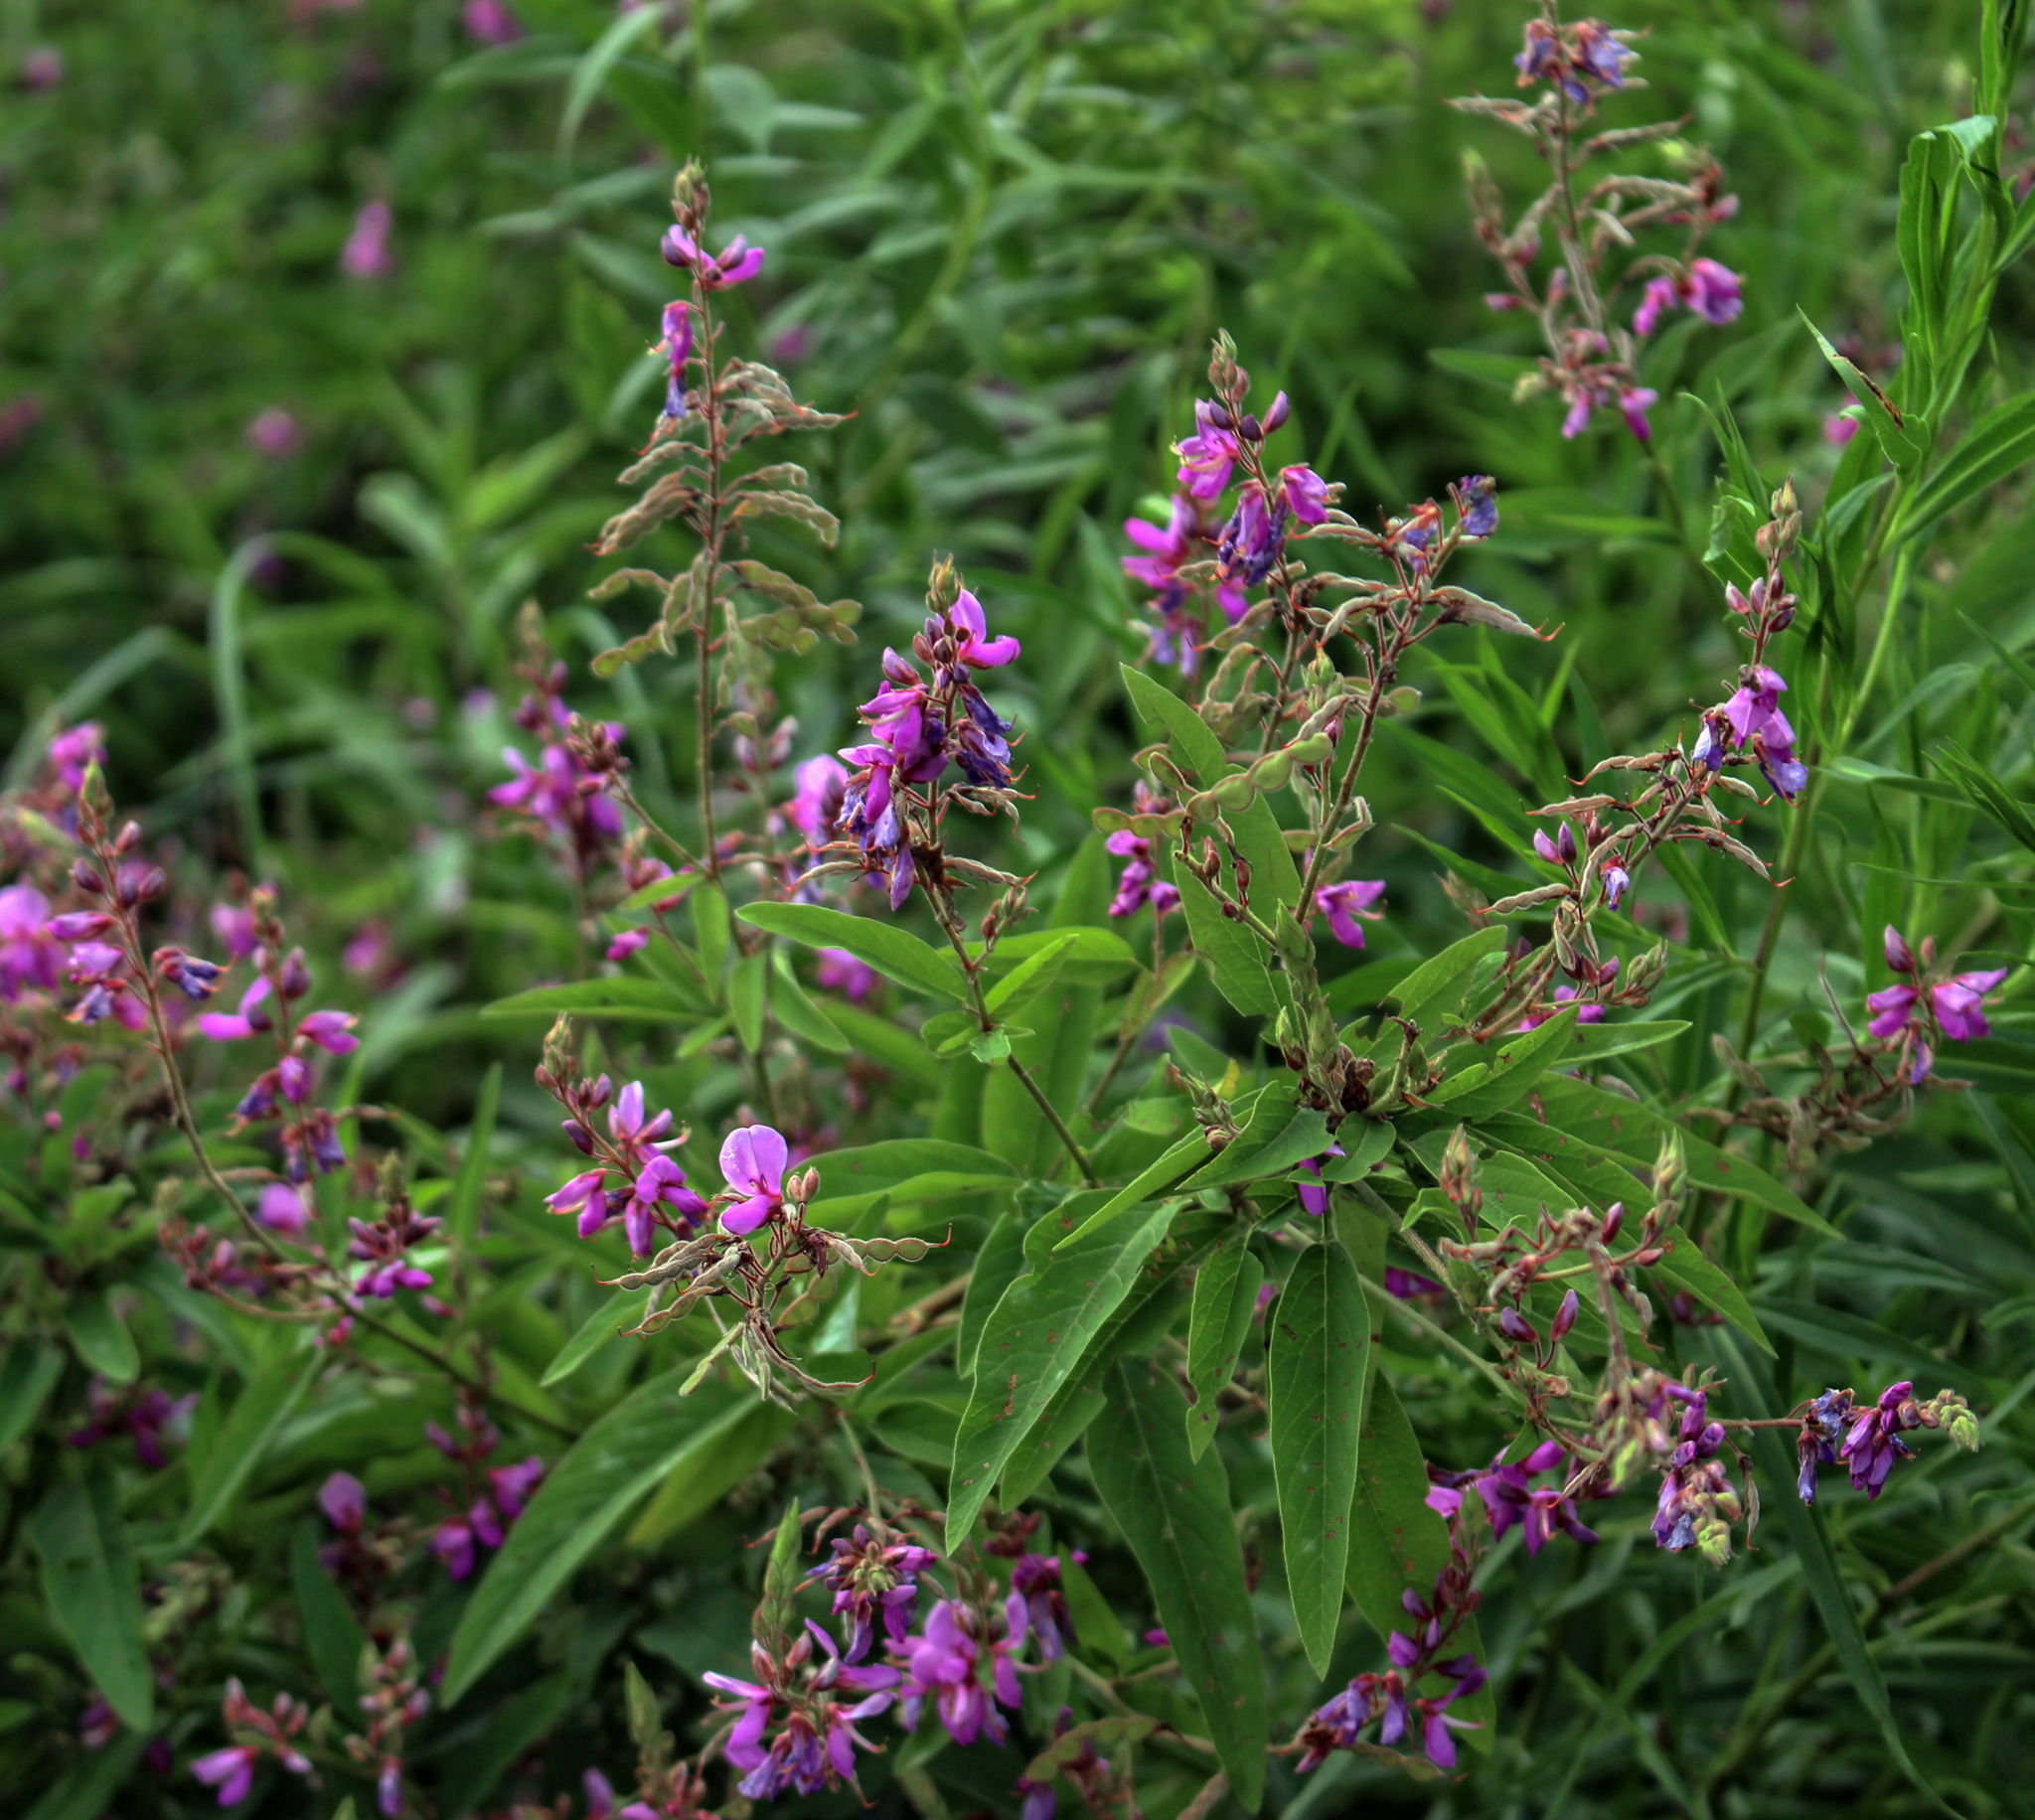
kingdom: Plantae
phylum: Tracheophyta
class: Magnoliopsida
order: Fabales
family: Fabaceae
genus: Desmodium
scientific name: Desmodium canadense
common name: Canada tick-trefoil
